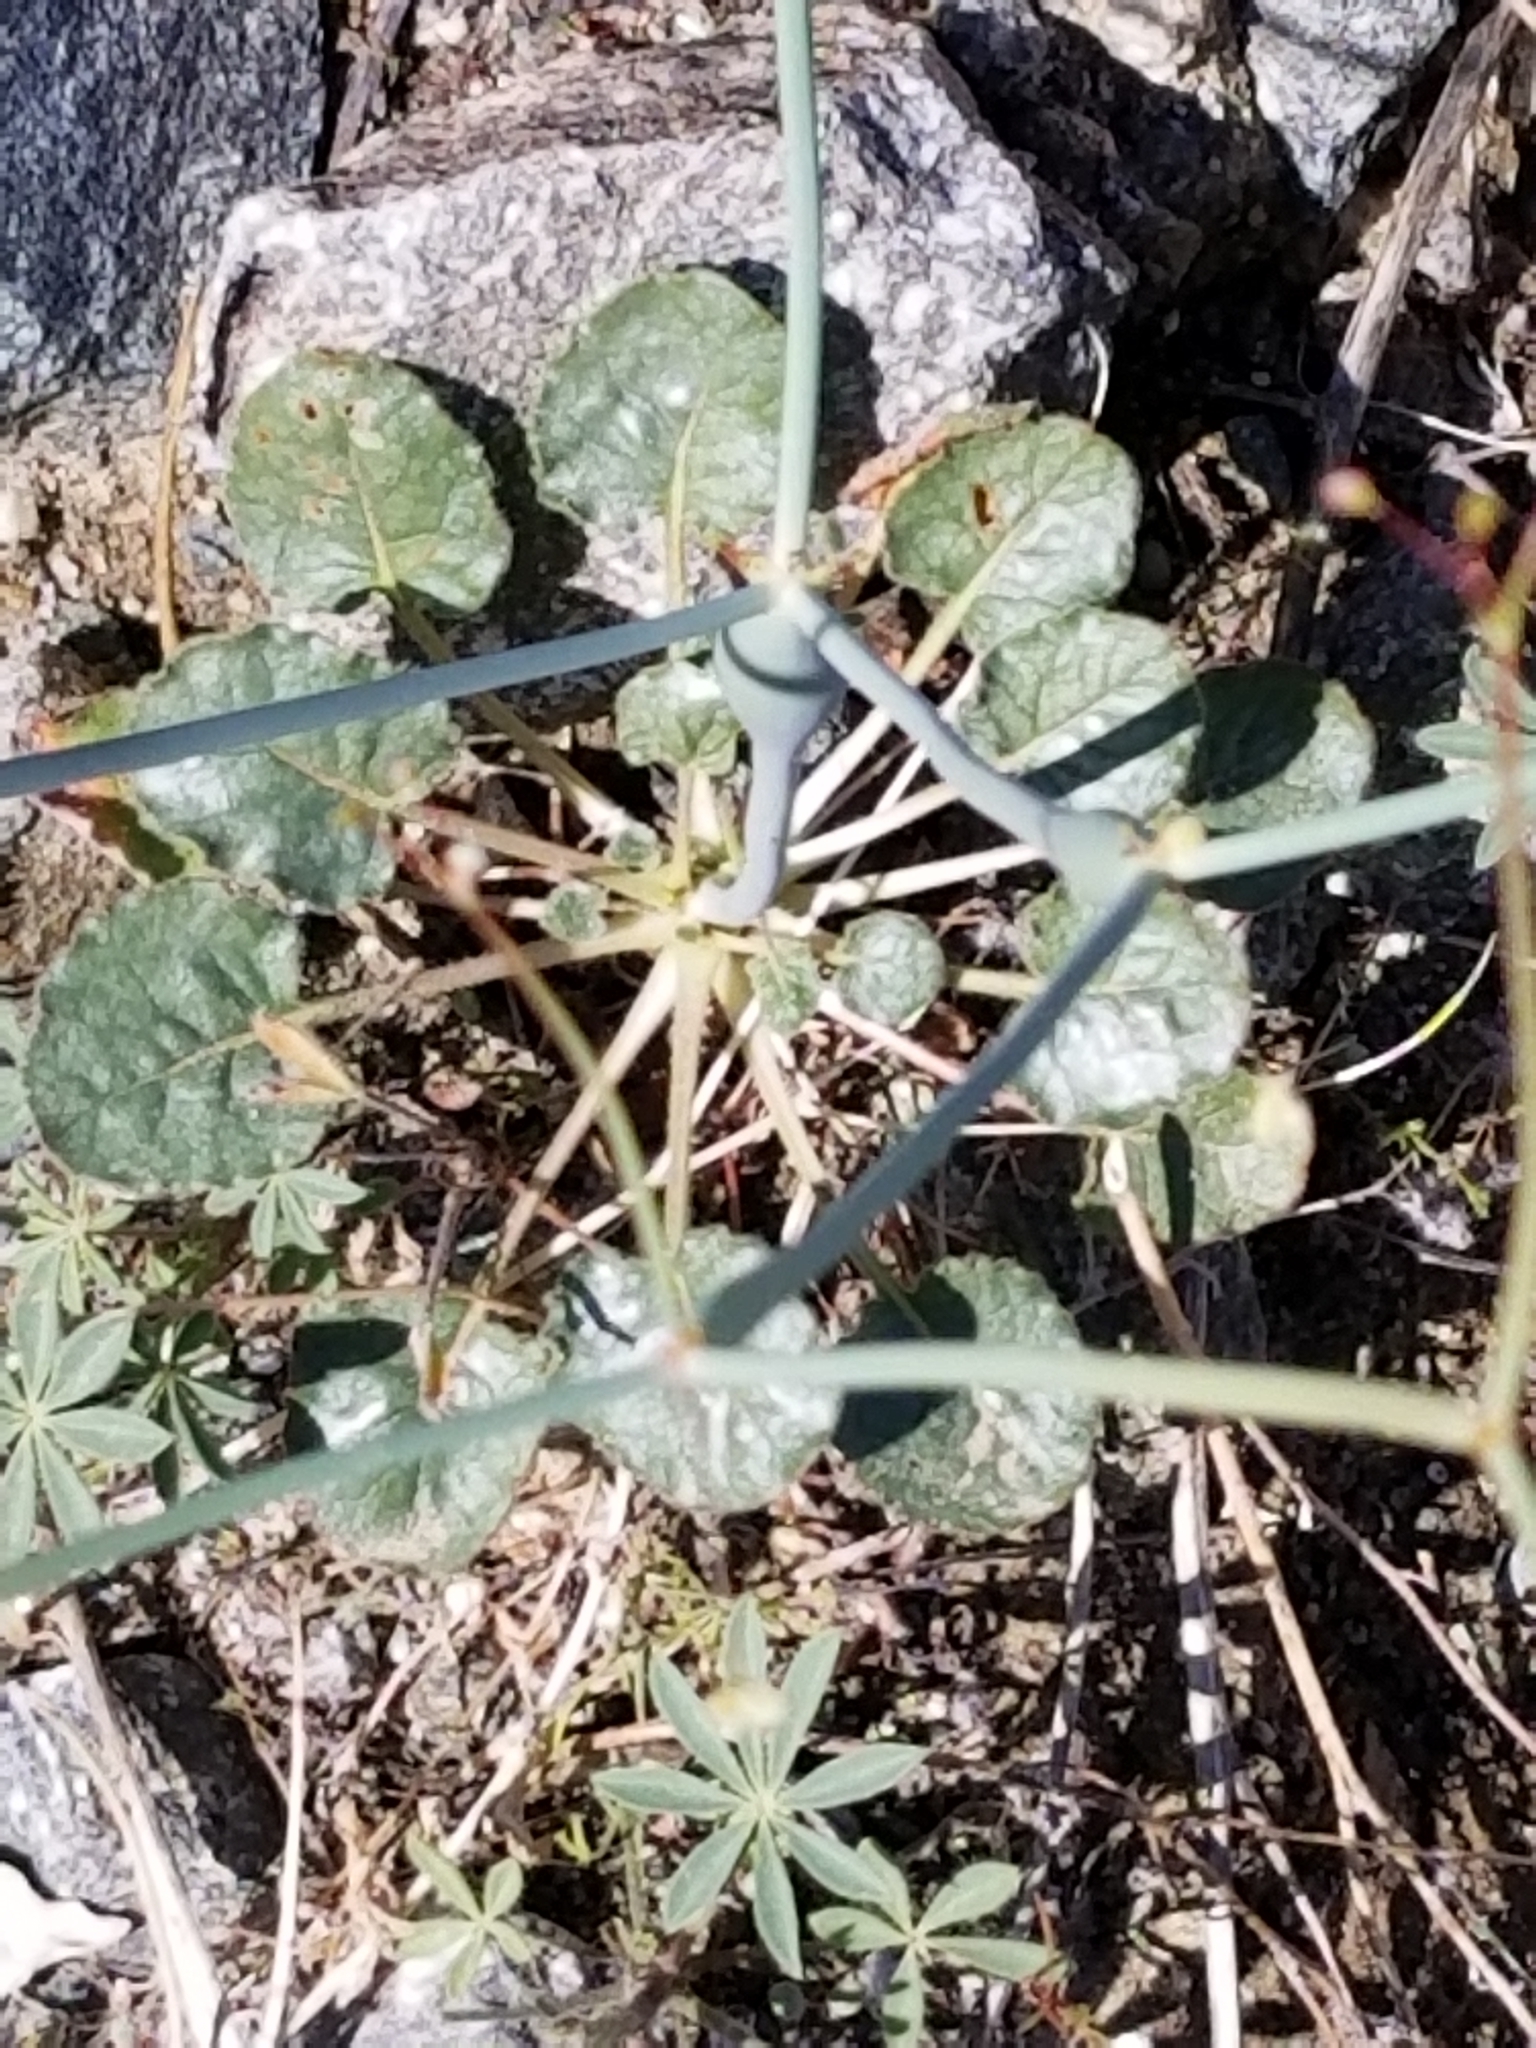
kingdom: Plantae
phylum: Tracheophyta
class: Magnoliopsida
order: Caryophyllales
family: Polygonaceae
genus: Eriogonum
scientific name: Eriogonum inflatum
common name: Desert trumpet
